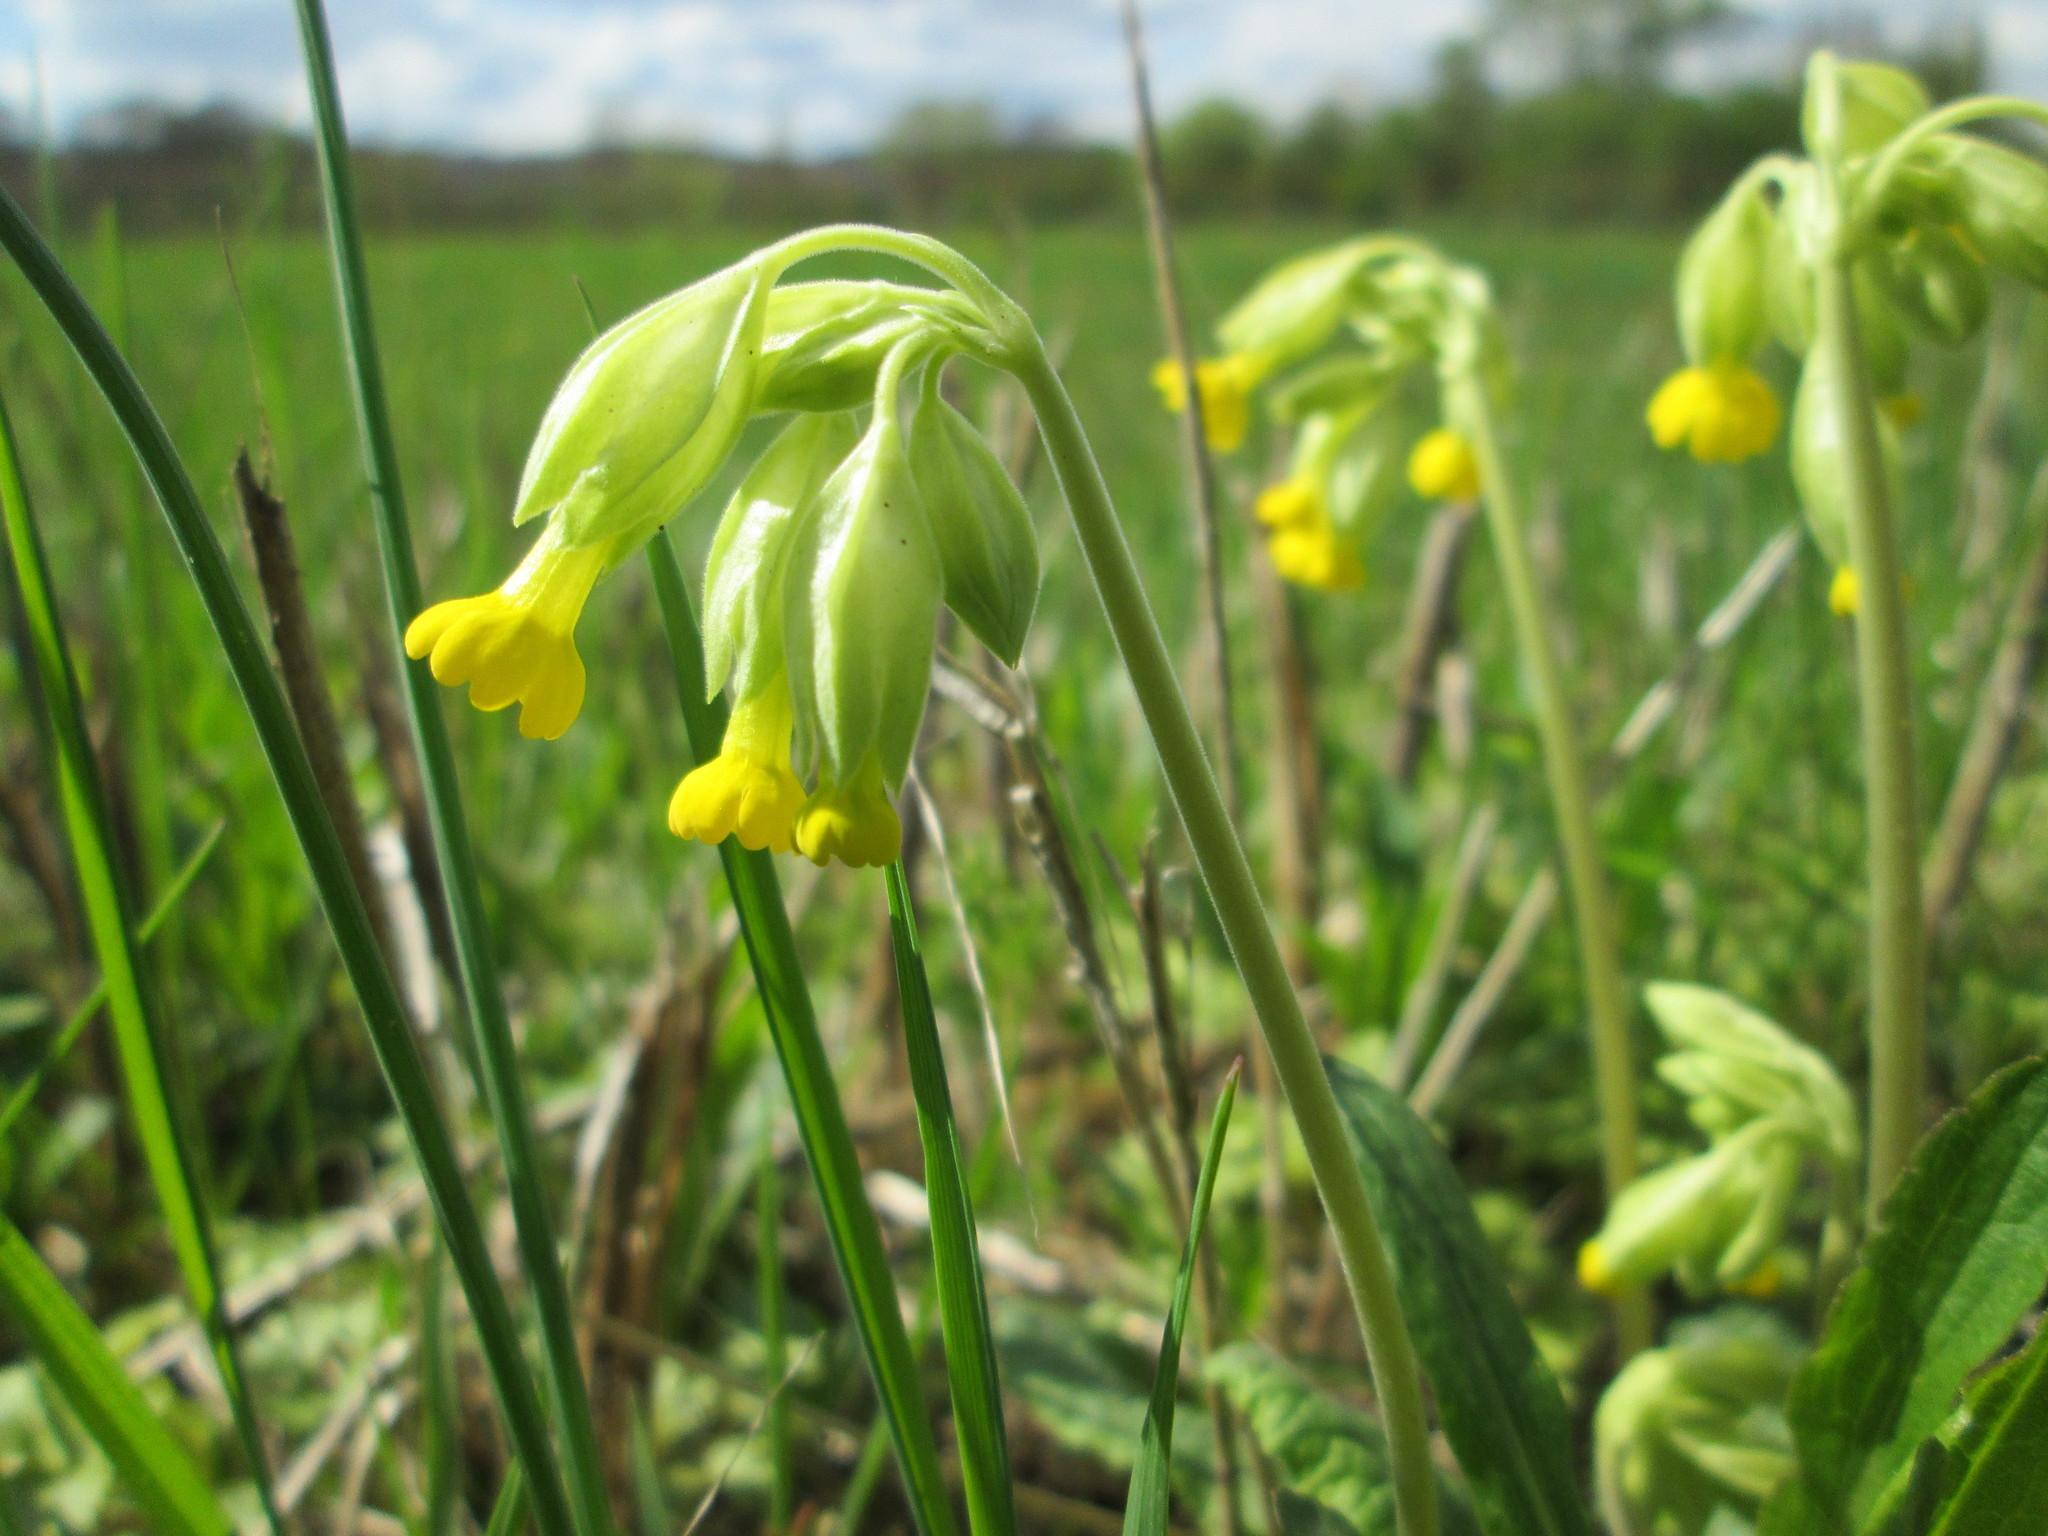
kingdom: Plantae
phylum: Tracheophyta
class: Magnoliopsida
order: Ericales
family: Primulaceae
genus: Primula
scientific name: Primula veris
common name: Cowslip
